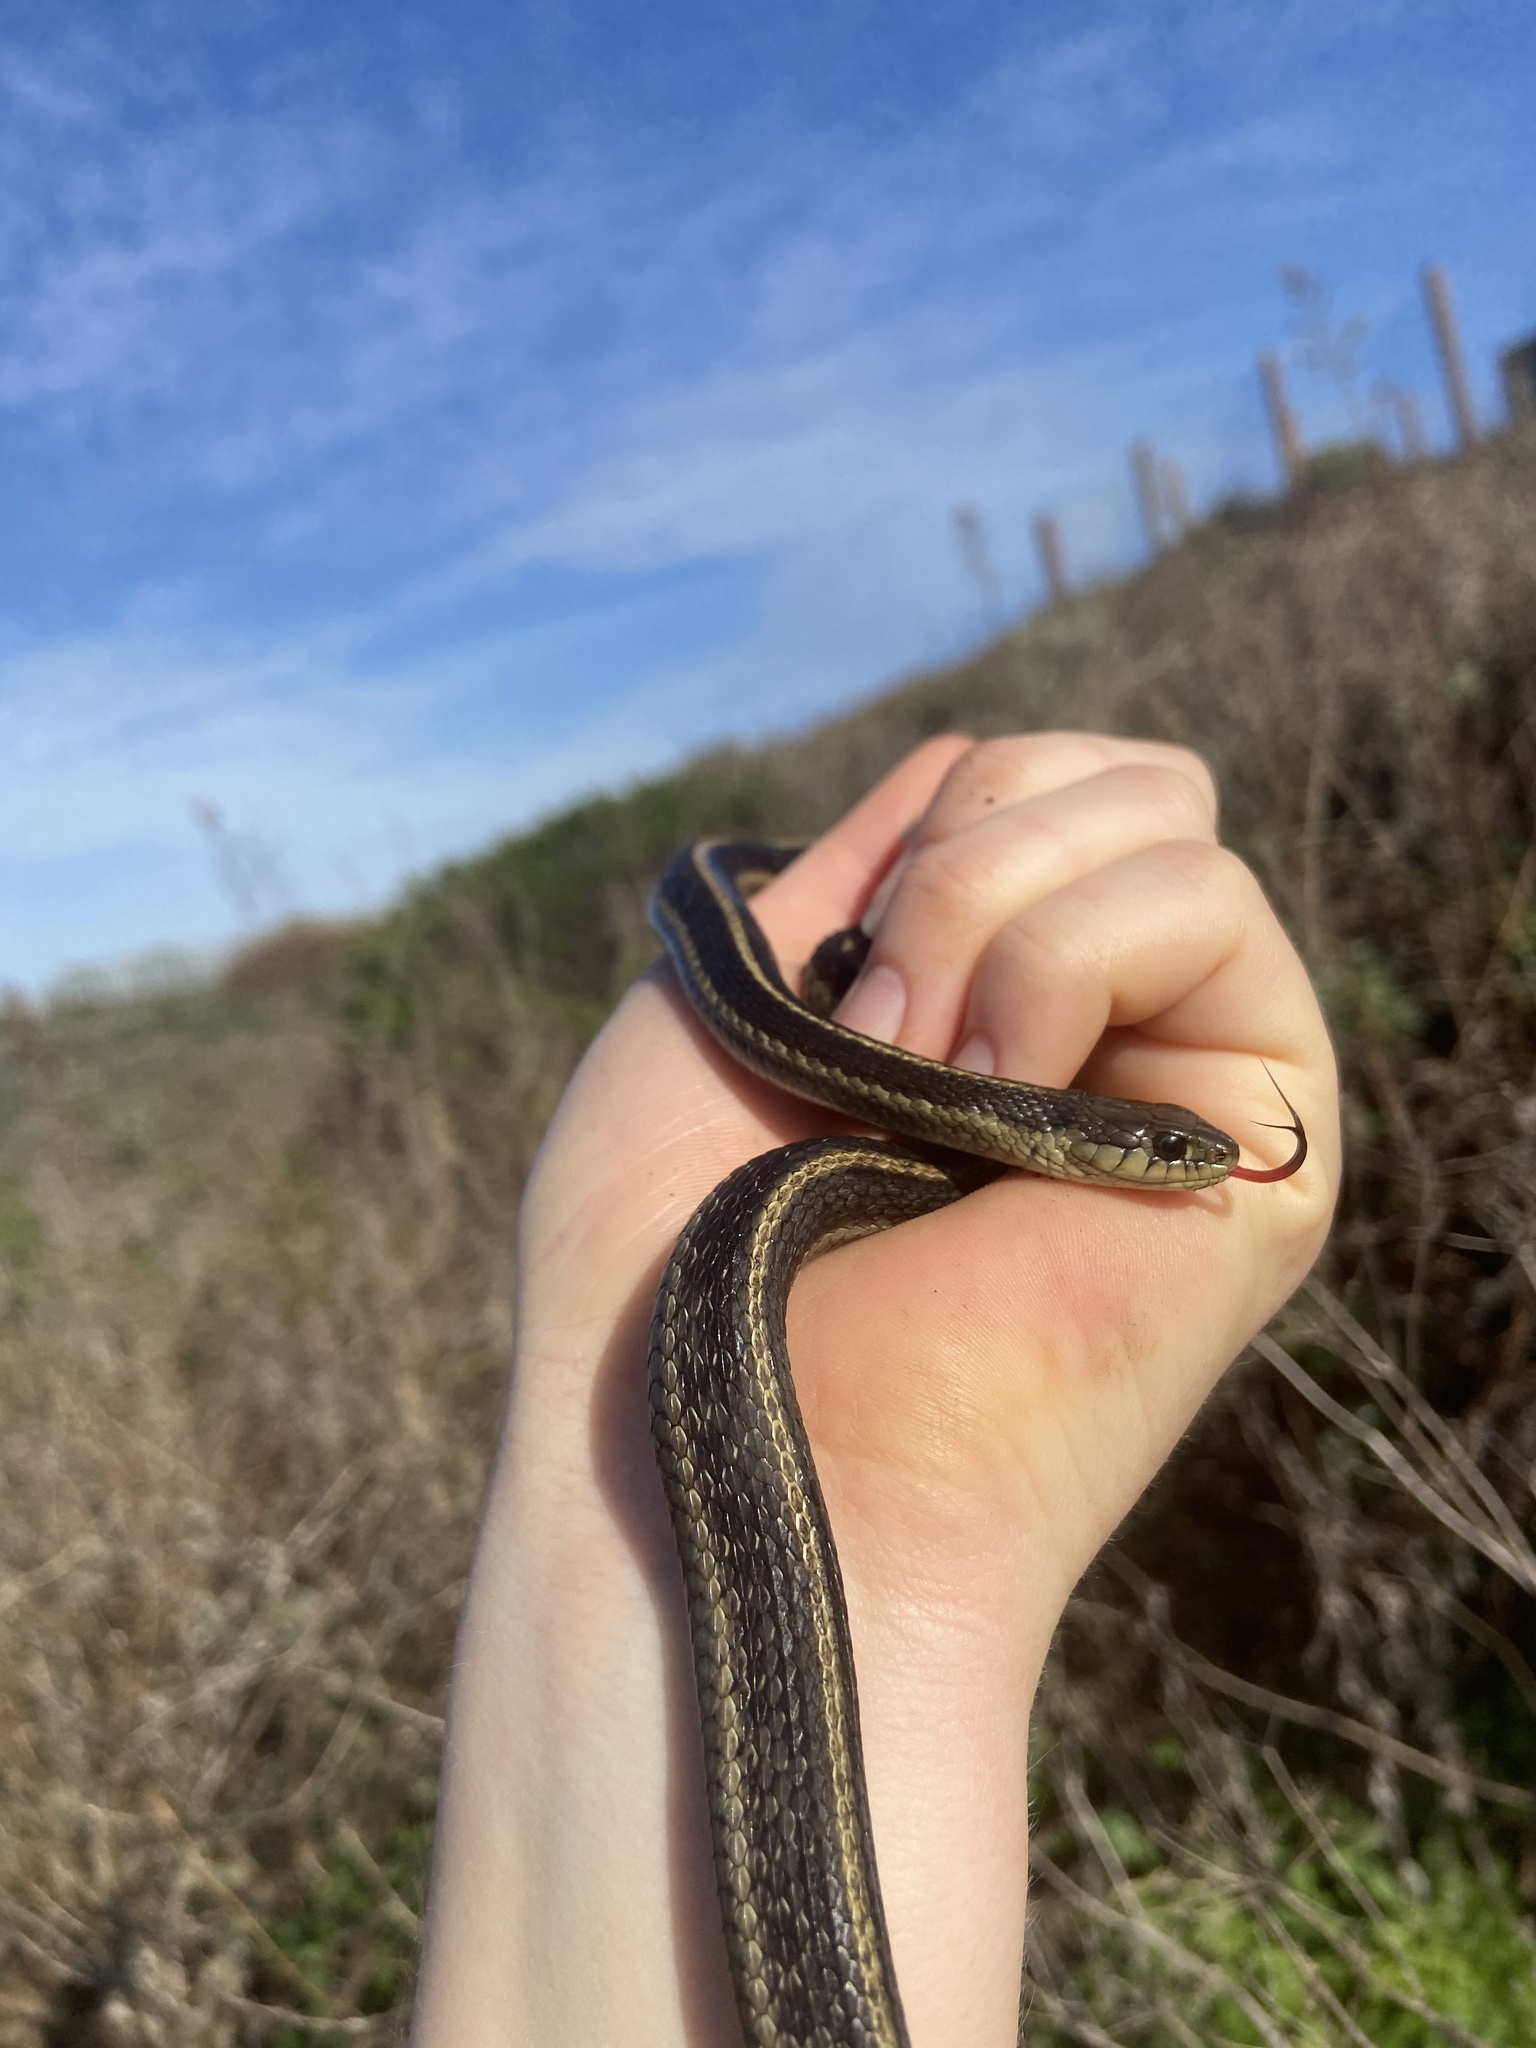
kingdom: Animalia
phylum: Chordata
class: Squamata
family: Colubridae
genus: Thamnophis
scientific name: Thamnophis elegans
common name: Western terrestrial garter snake
